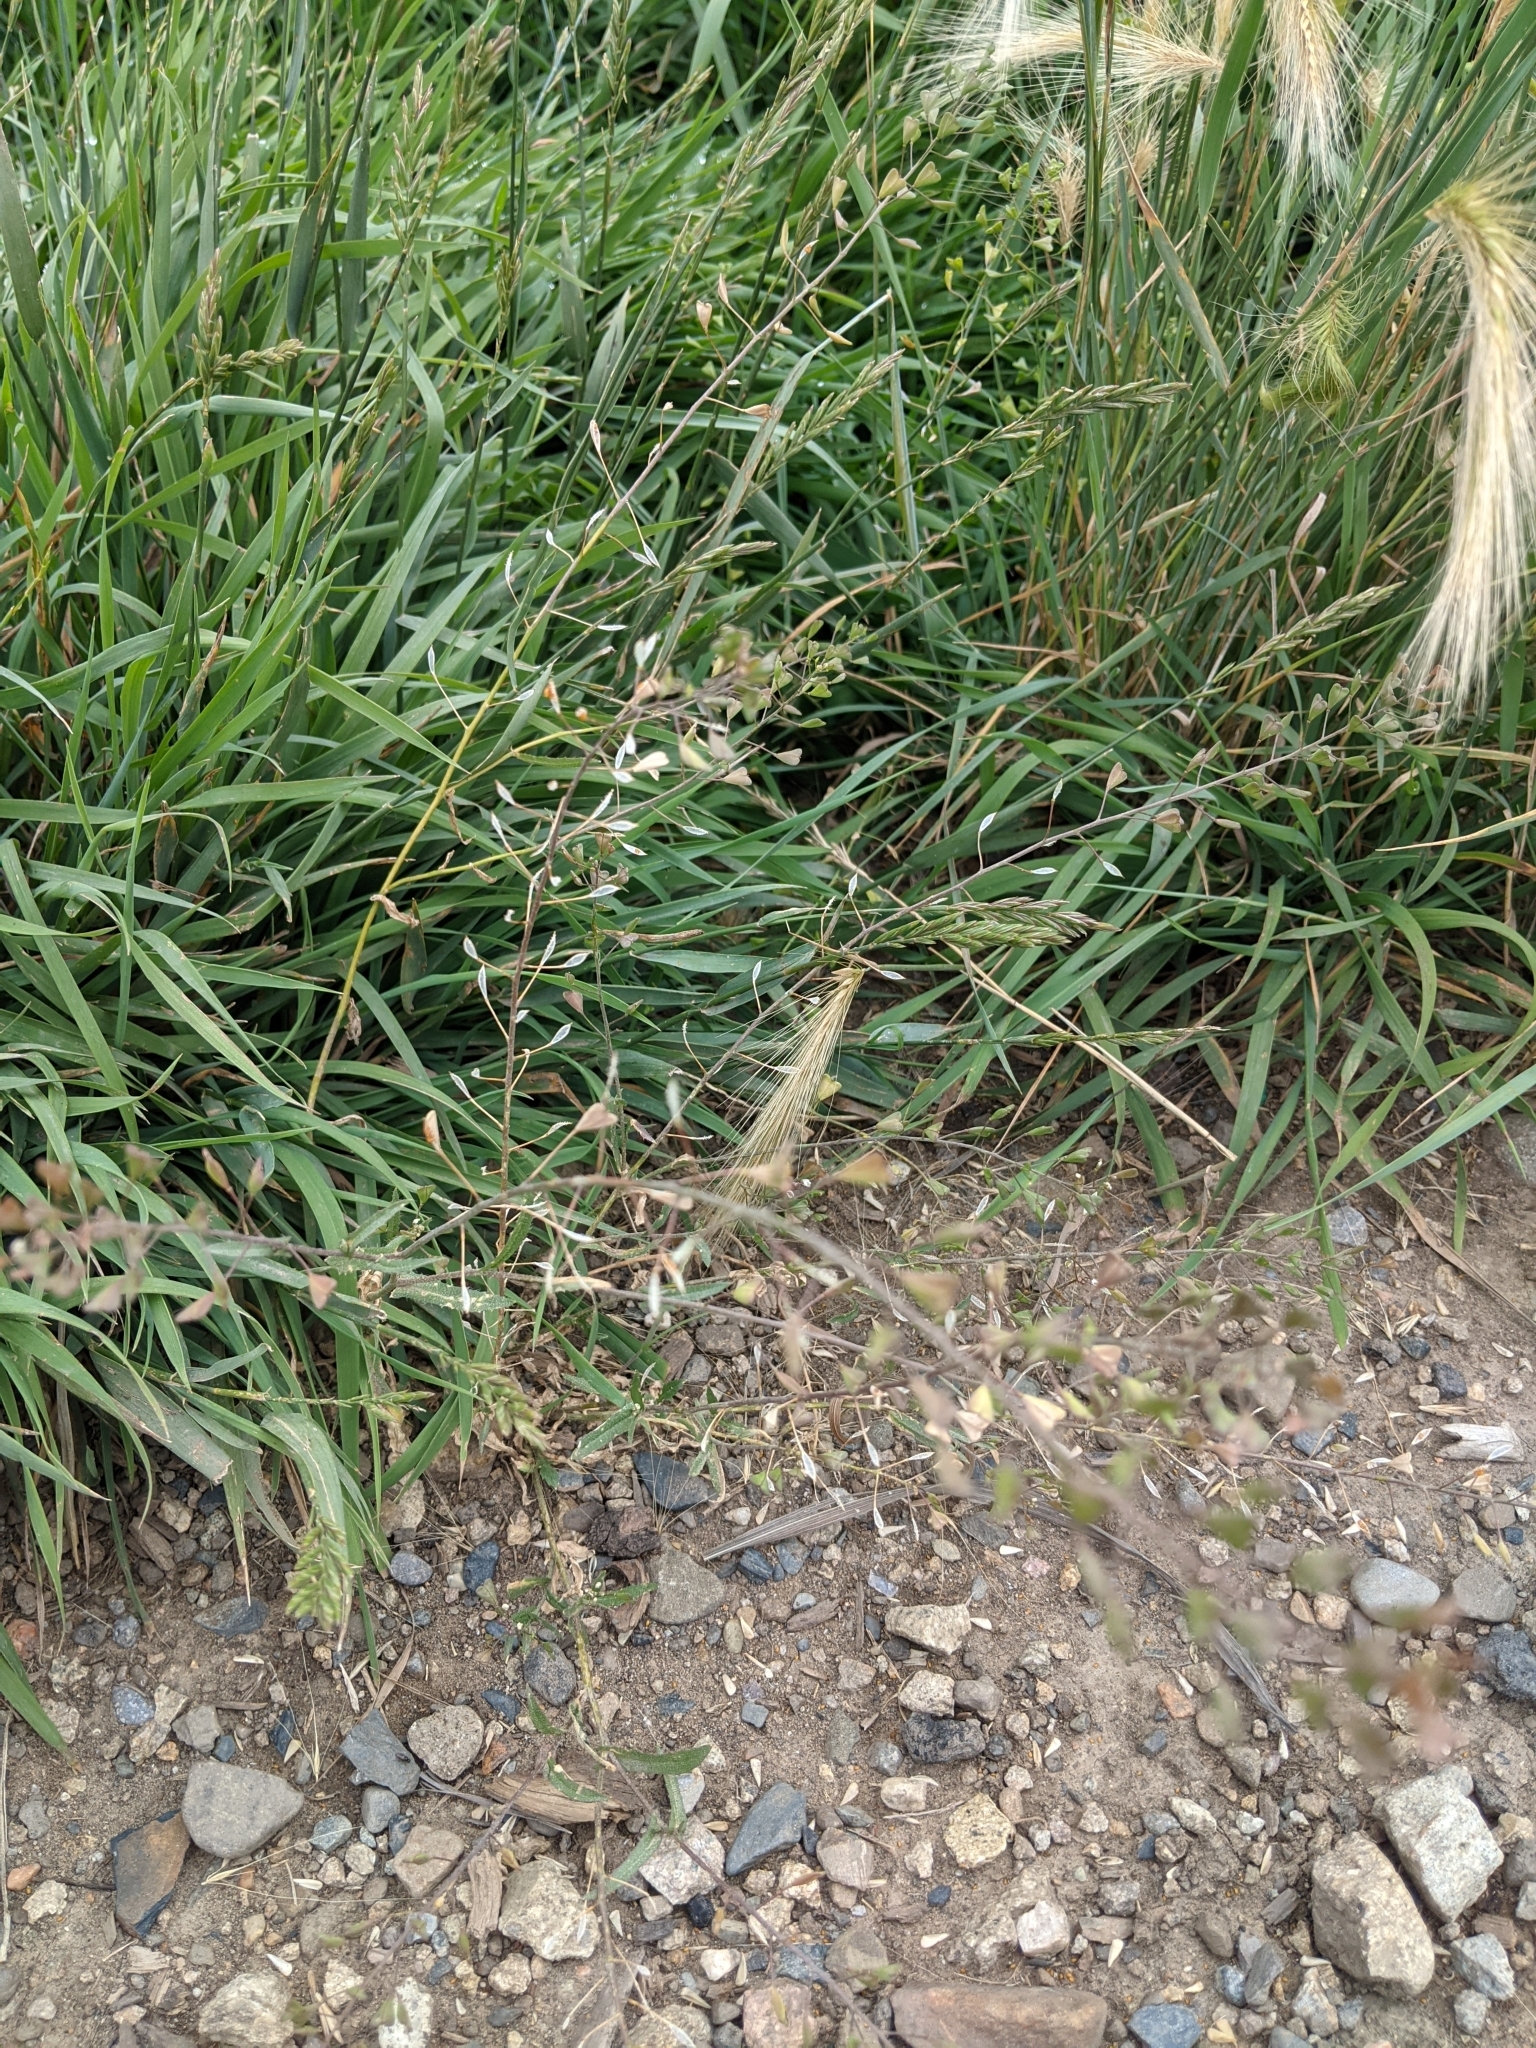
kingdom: Plantae
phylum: Tracheophyta
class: Magnoliopsida
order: Brassicales
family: Brassicaceae
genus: Capsella
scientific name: Capsella bursa-pastoris
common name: Shepherd's purse
